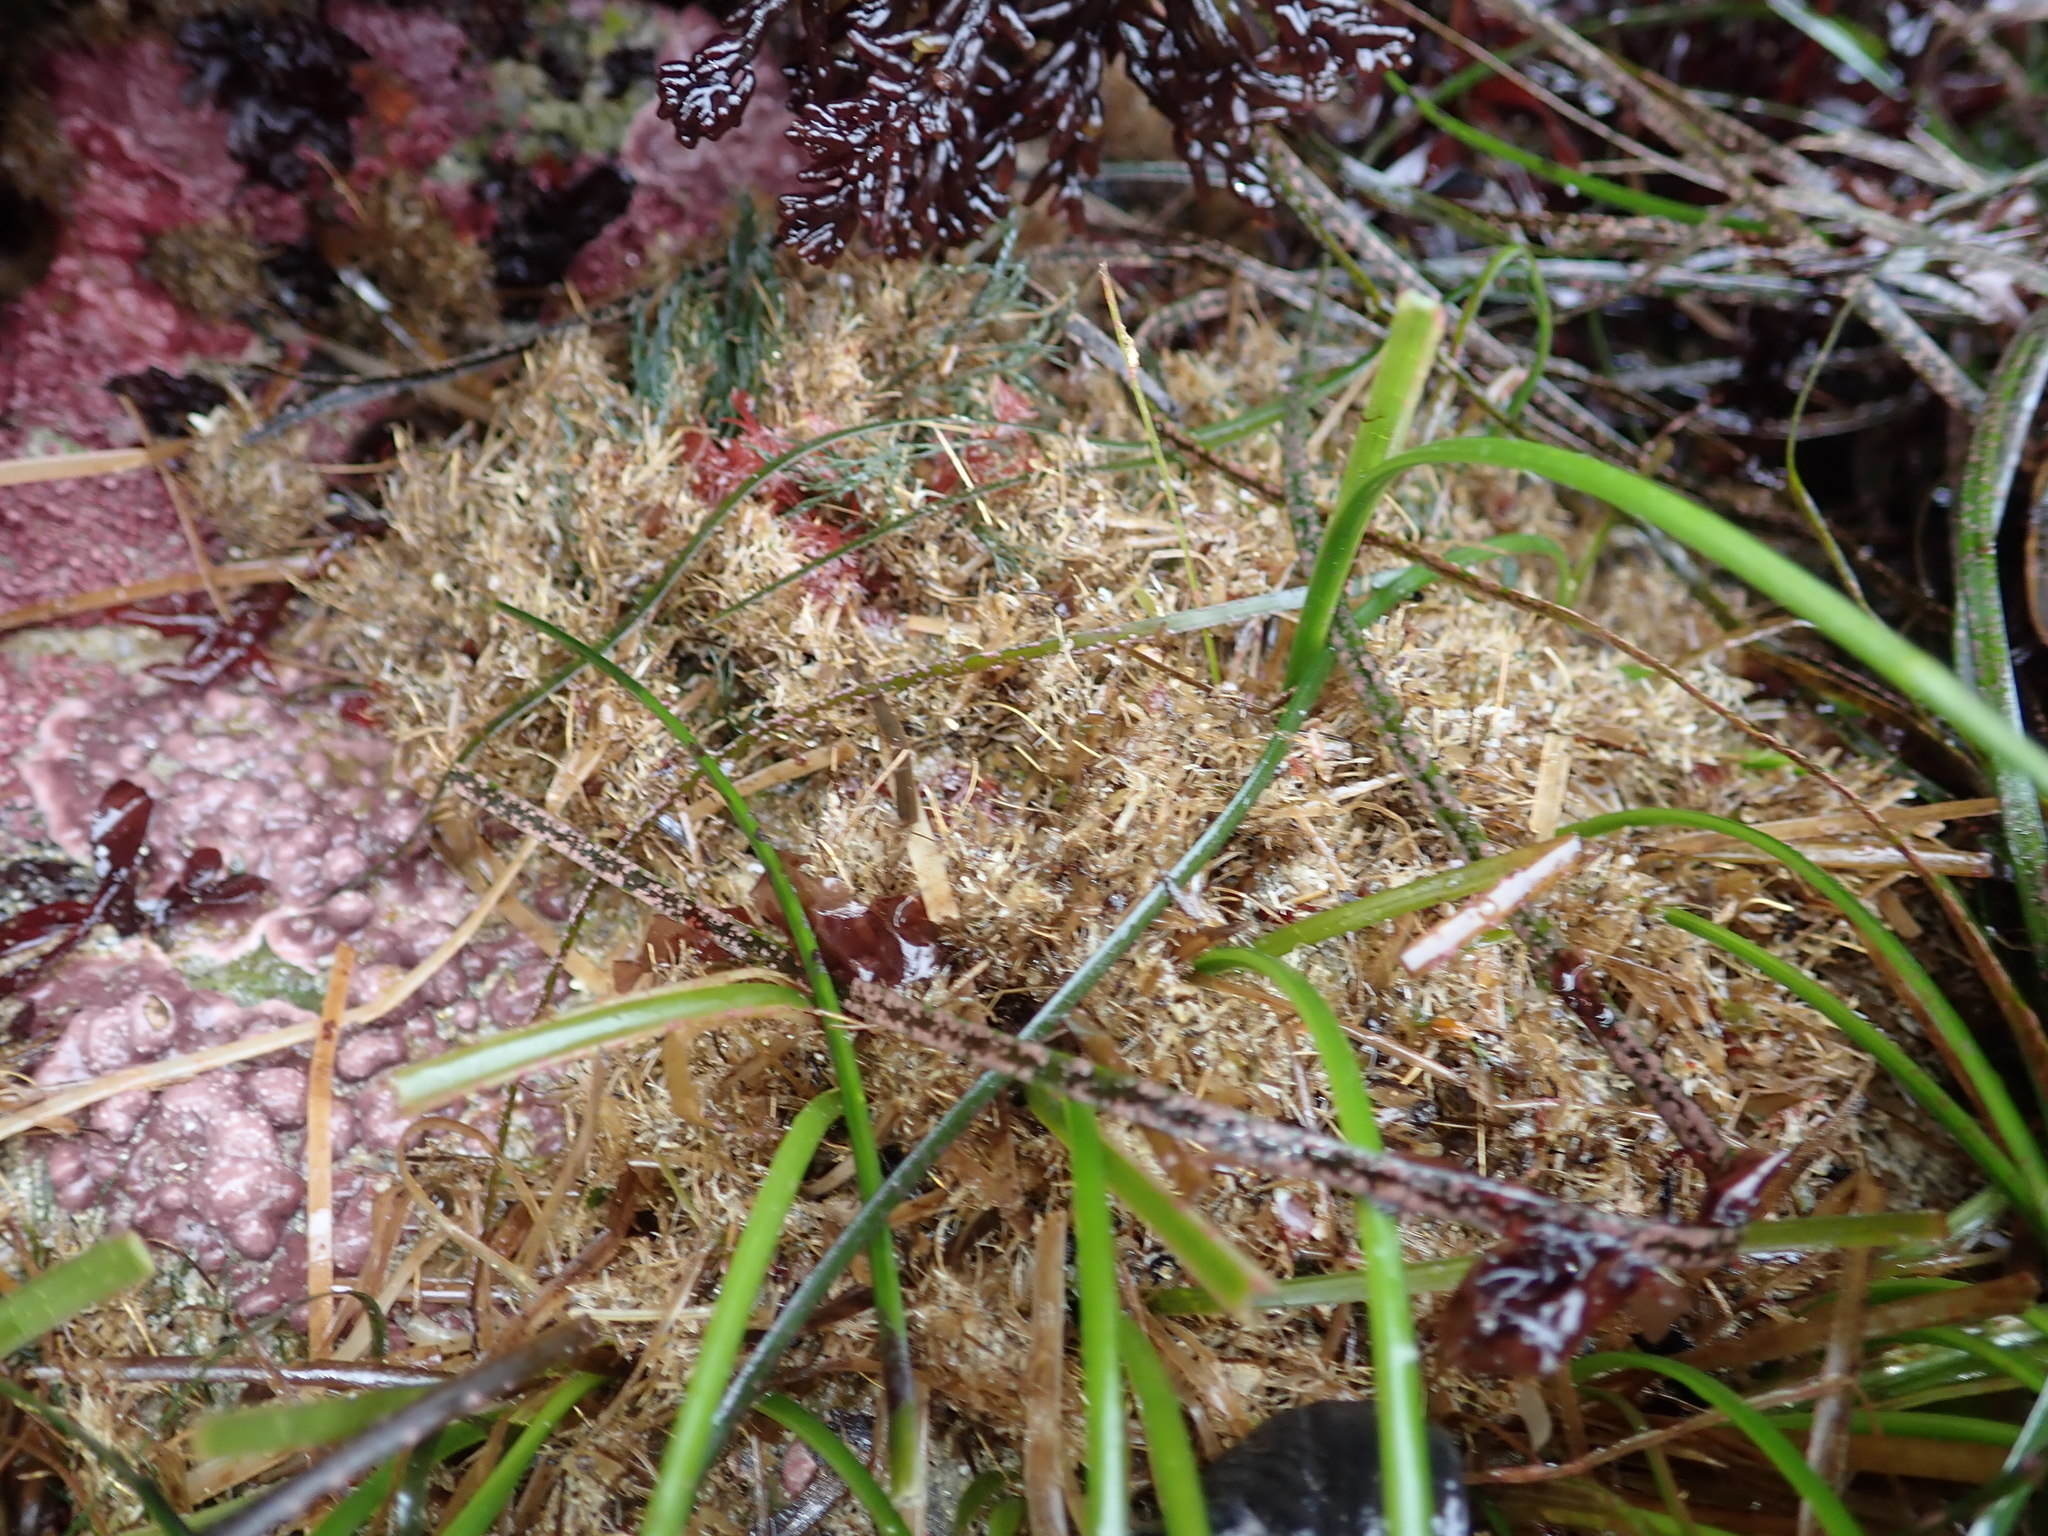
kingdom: Animalia
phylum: Annelida
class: Polychaeta
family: Terebellidae
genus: Pista
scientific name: Pista elongata
